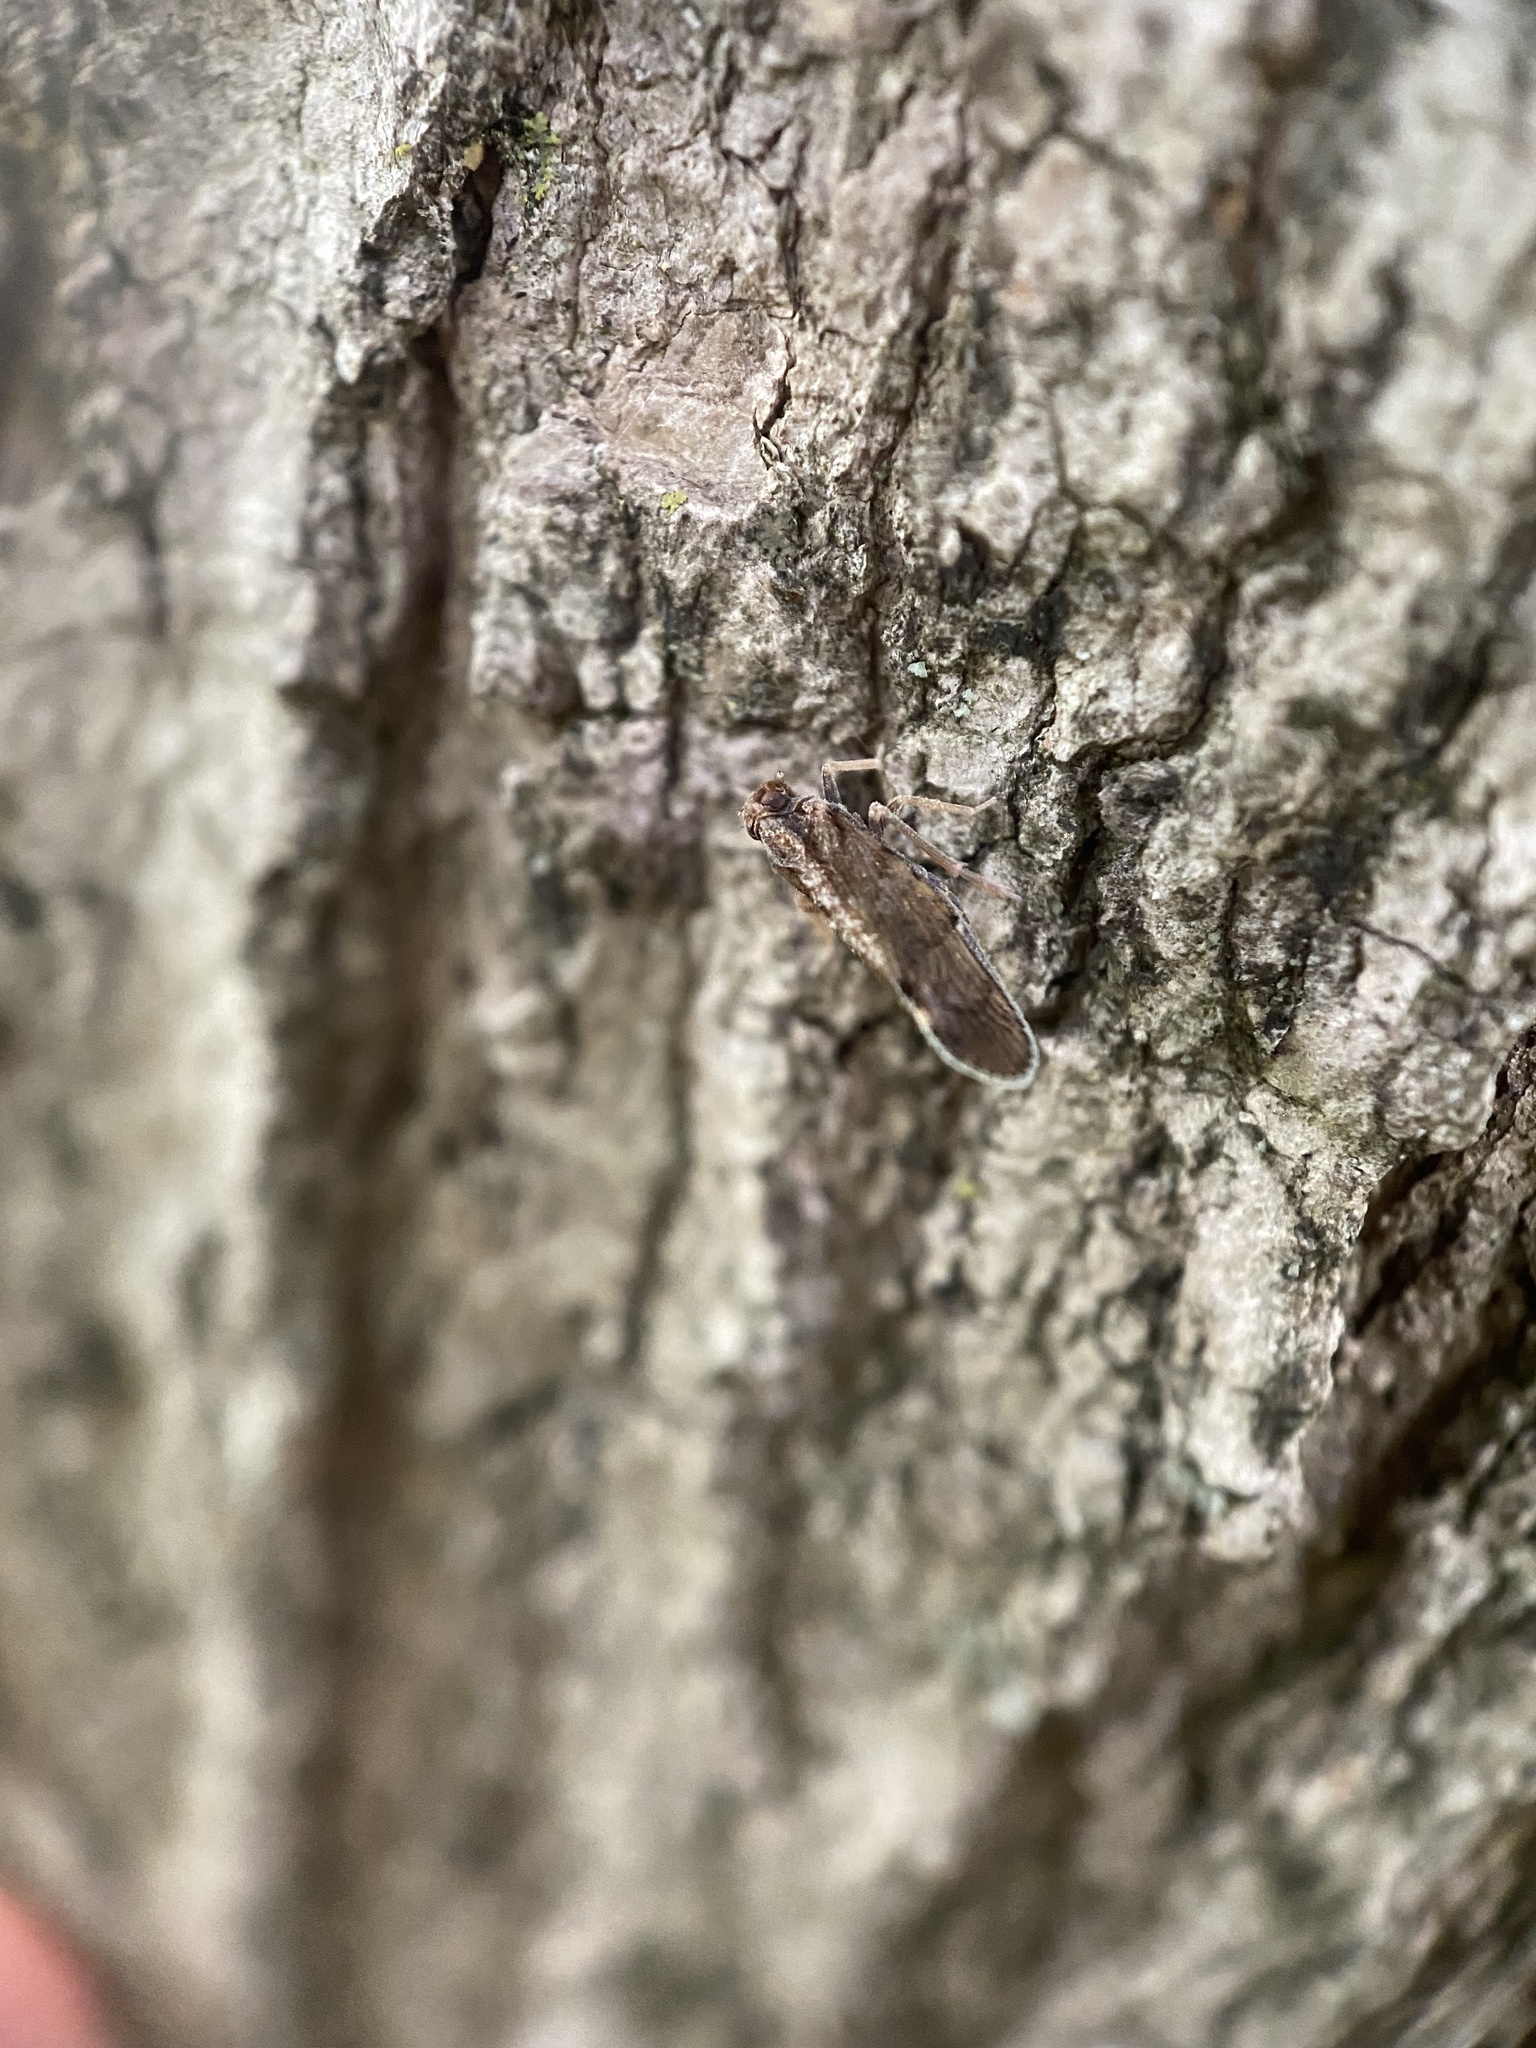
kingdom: Animalia
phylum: Arthropoda
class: Insecta
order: Hemiptera
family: Cixiidae
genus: Pintalia
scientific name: Pintalia vibex
